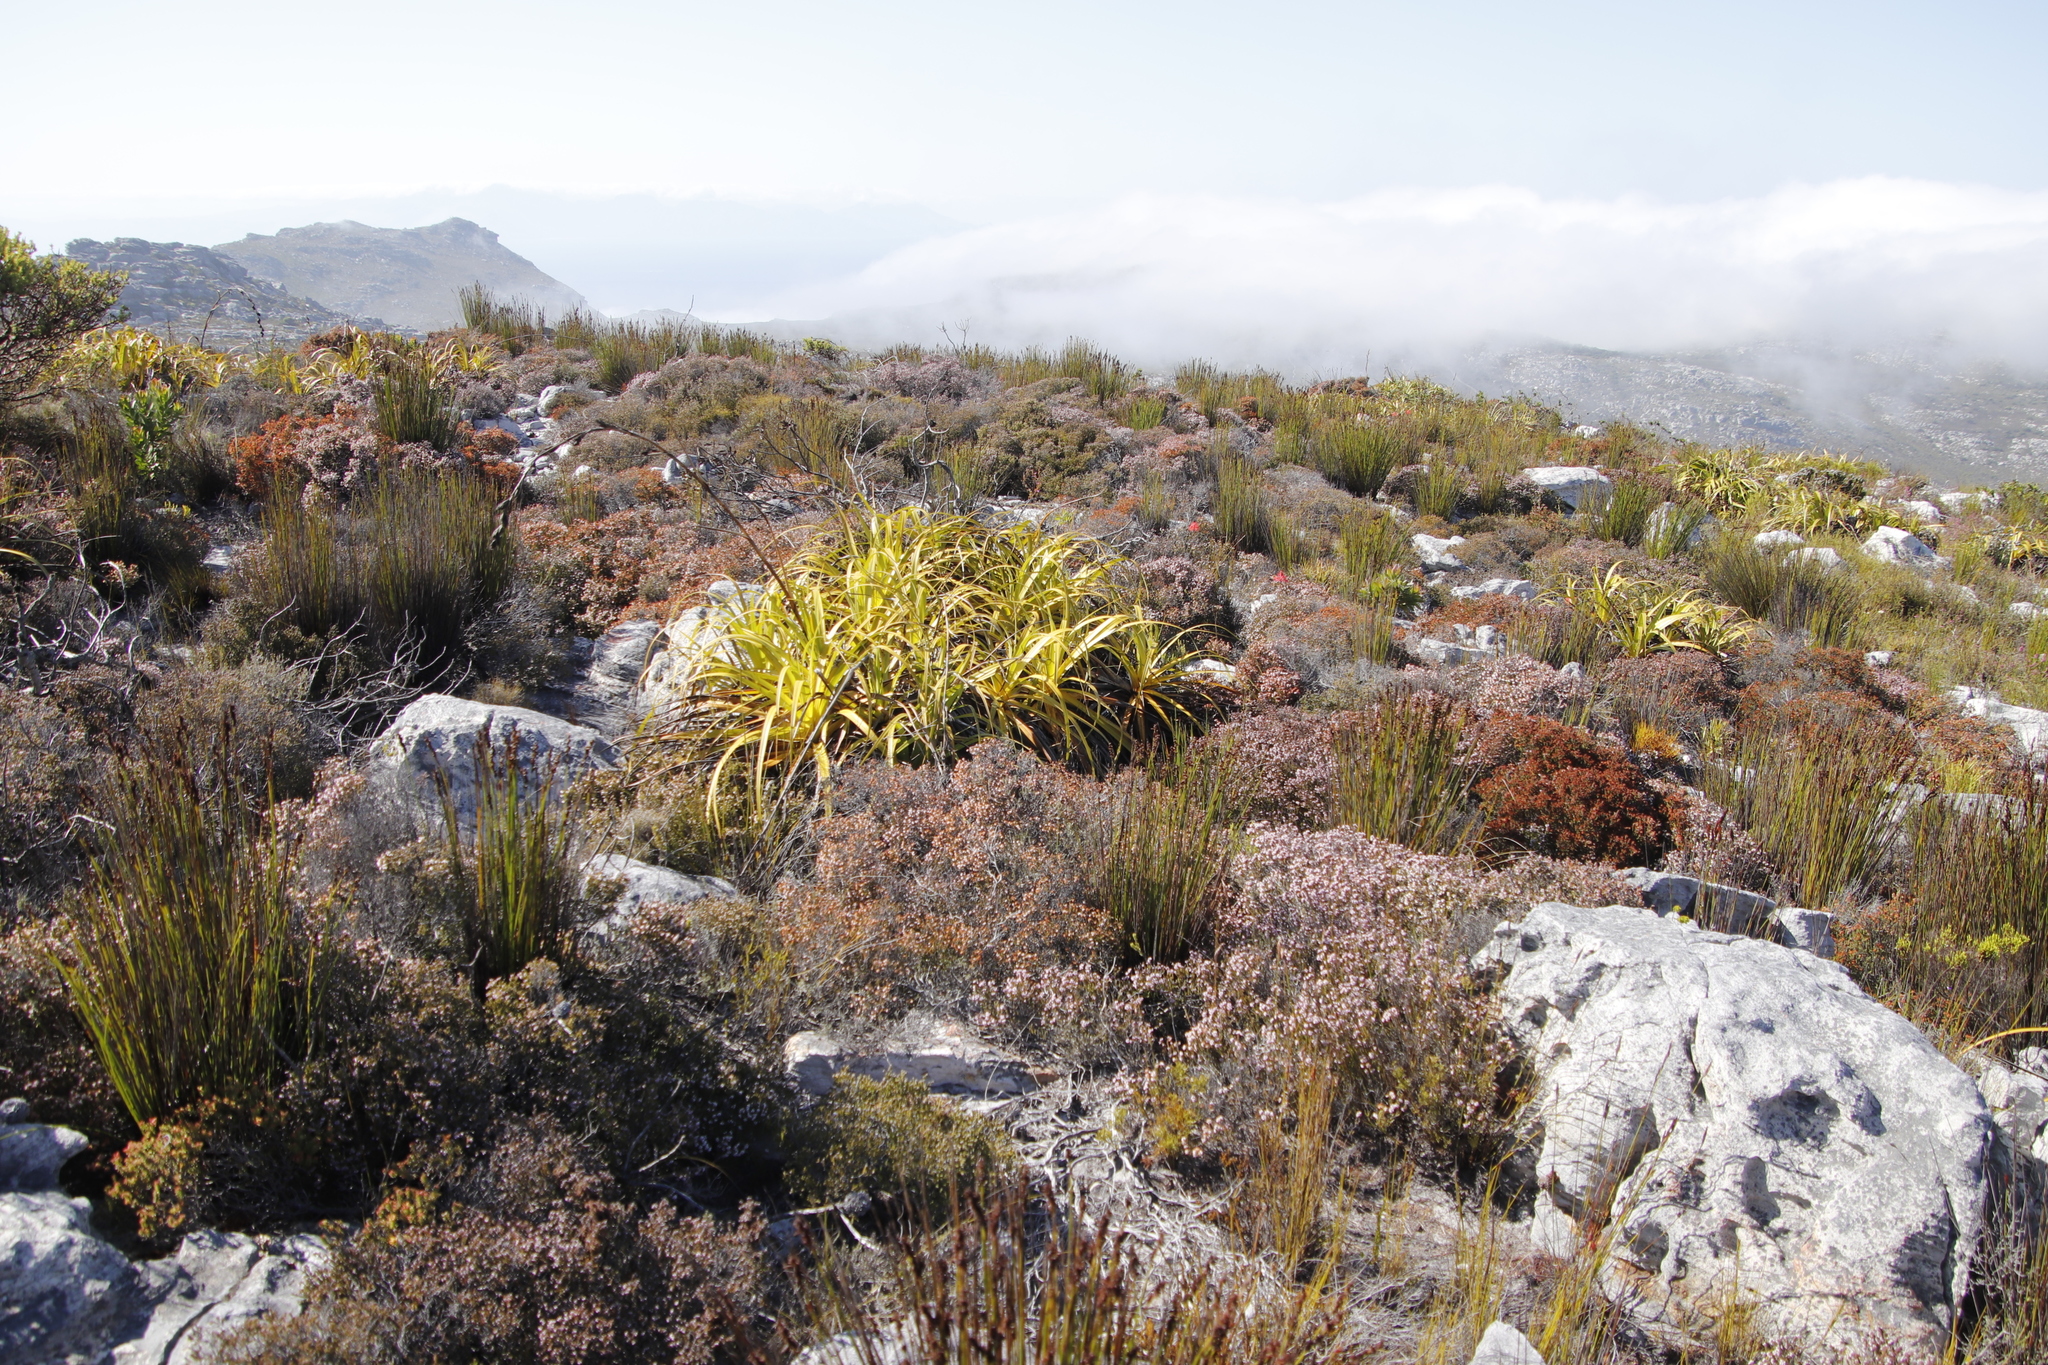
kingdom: Plantae
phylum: Tracheophyta
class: Liliopsida
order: Poales
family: Cyperaceae
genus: Tetraria
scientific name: Tetraria thermalis
